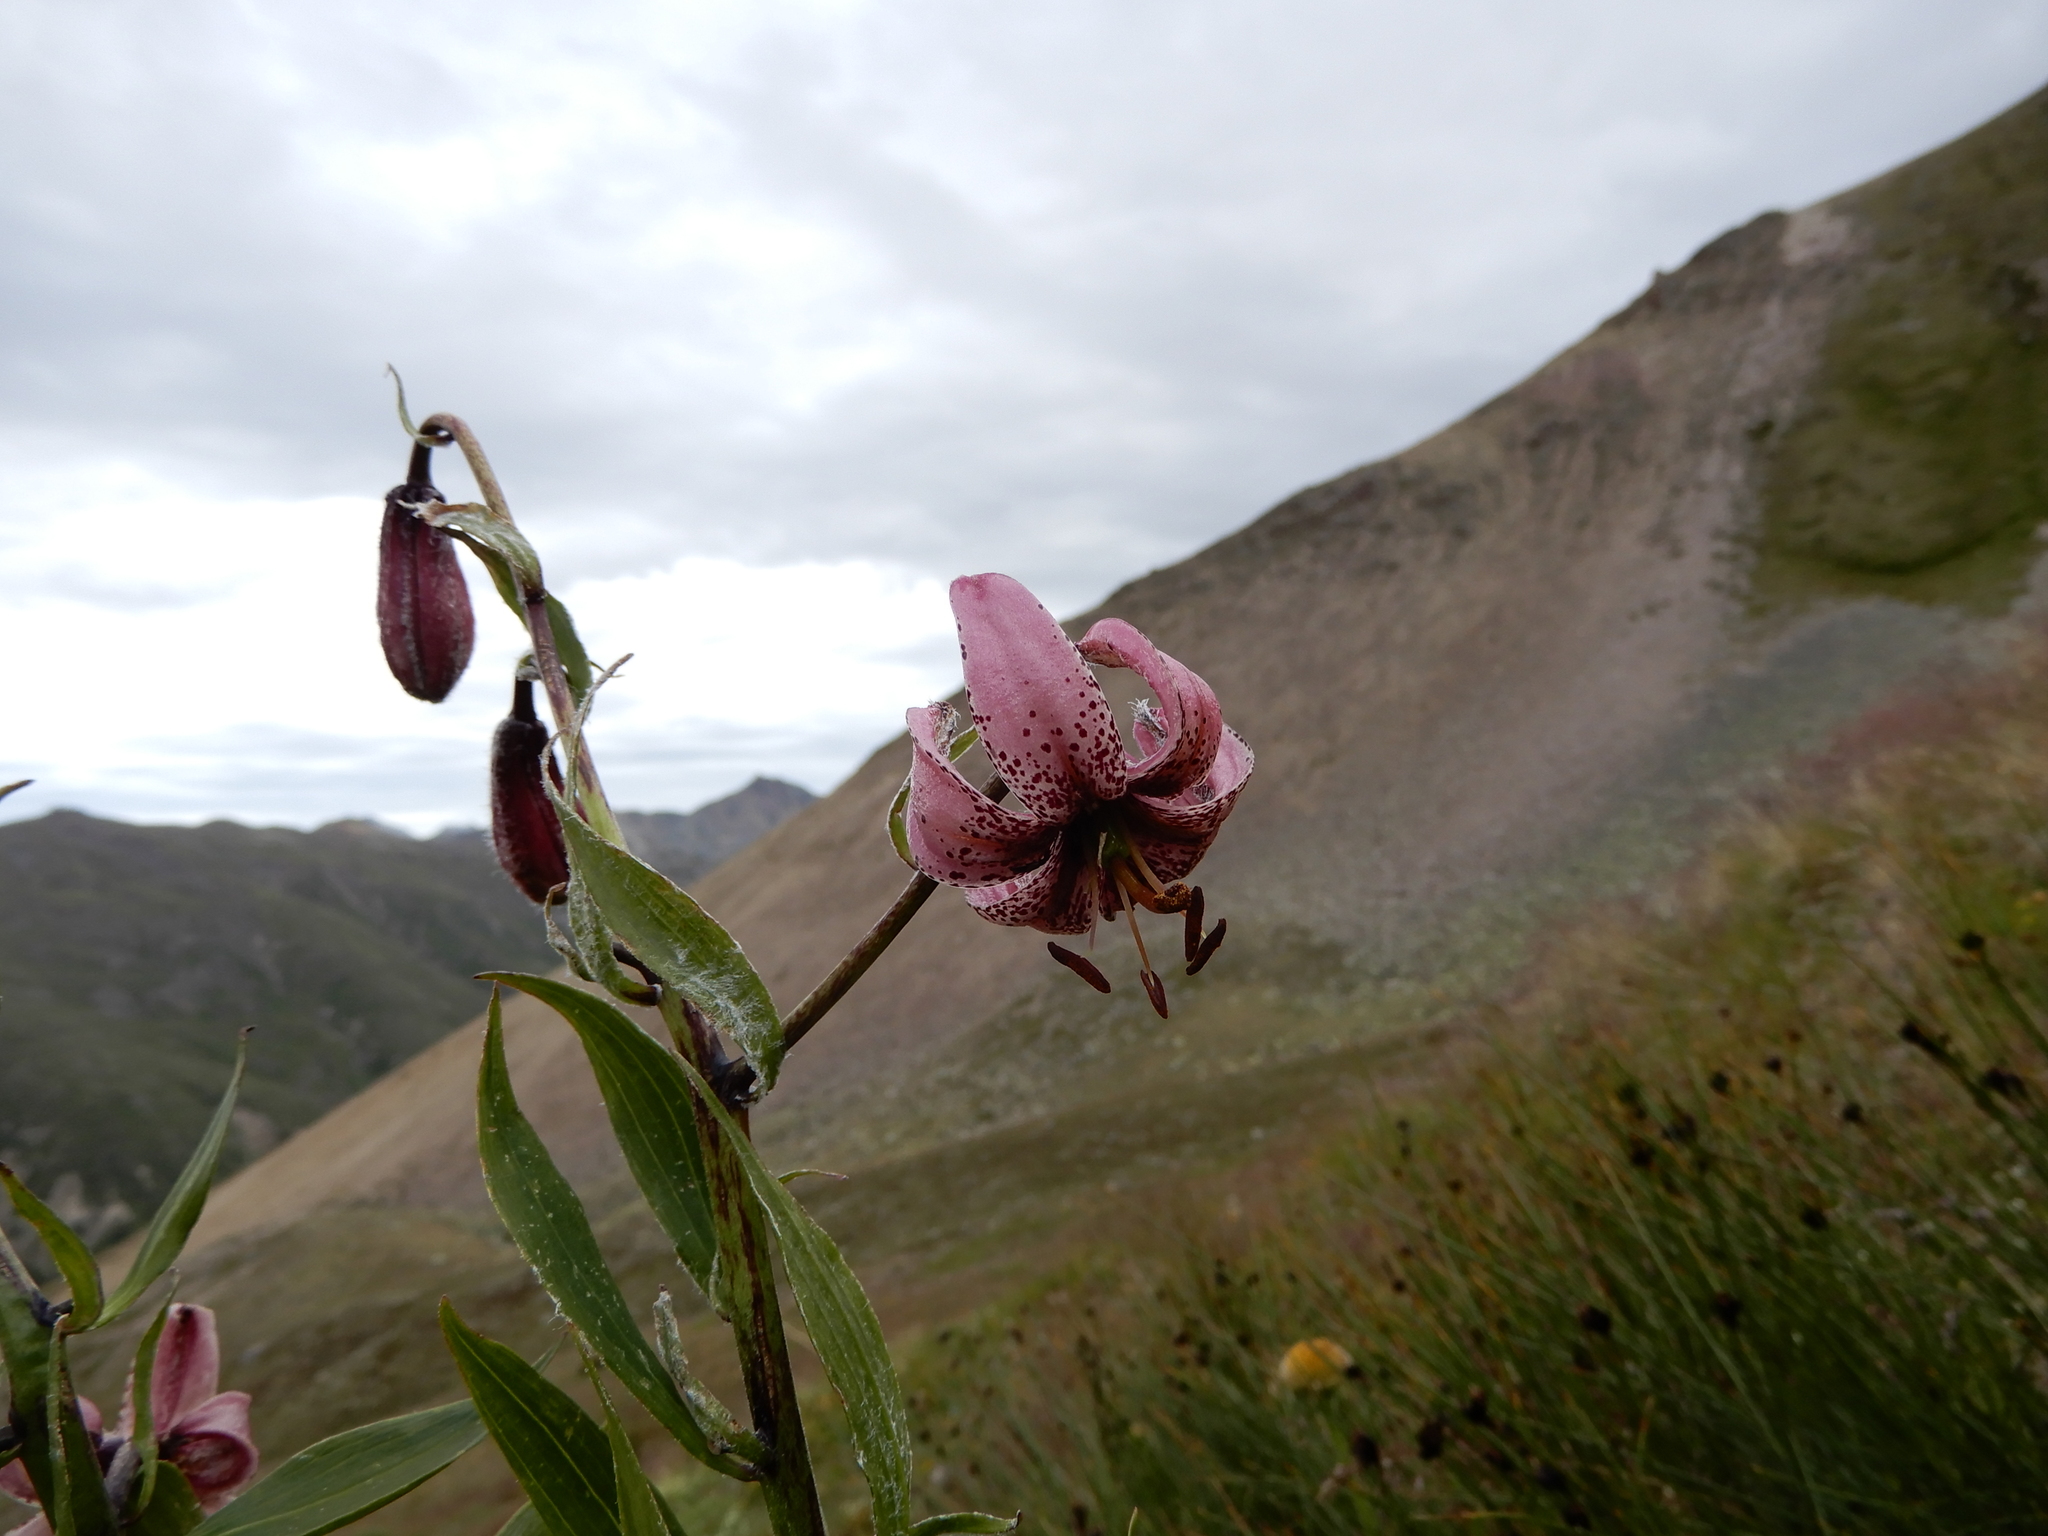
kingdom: Plantae
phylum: Tracheophyta
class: Liliopsida
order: Liliales
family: Liliaceae
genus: Lilium
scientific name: Lilium martagon
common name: Martagon lily
